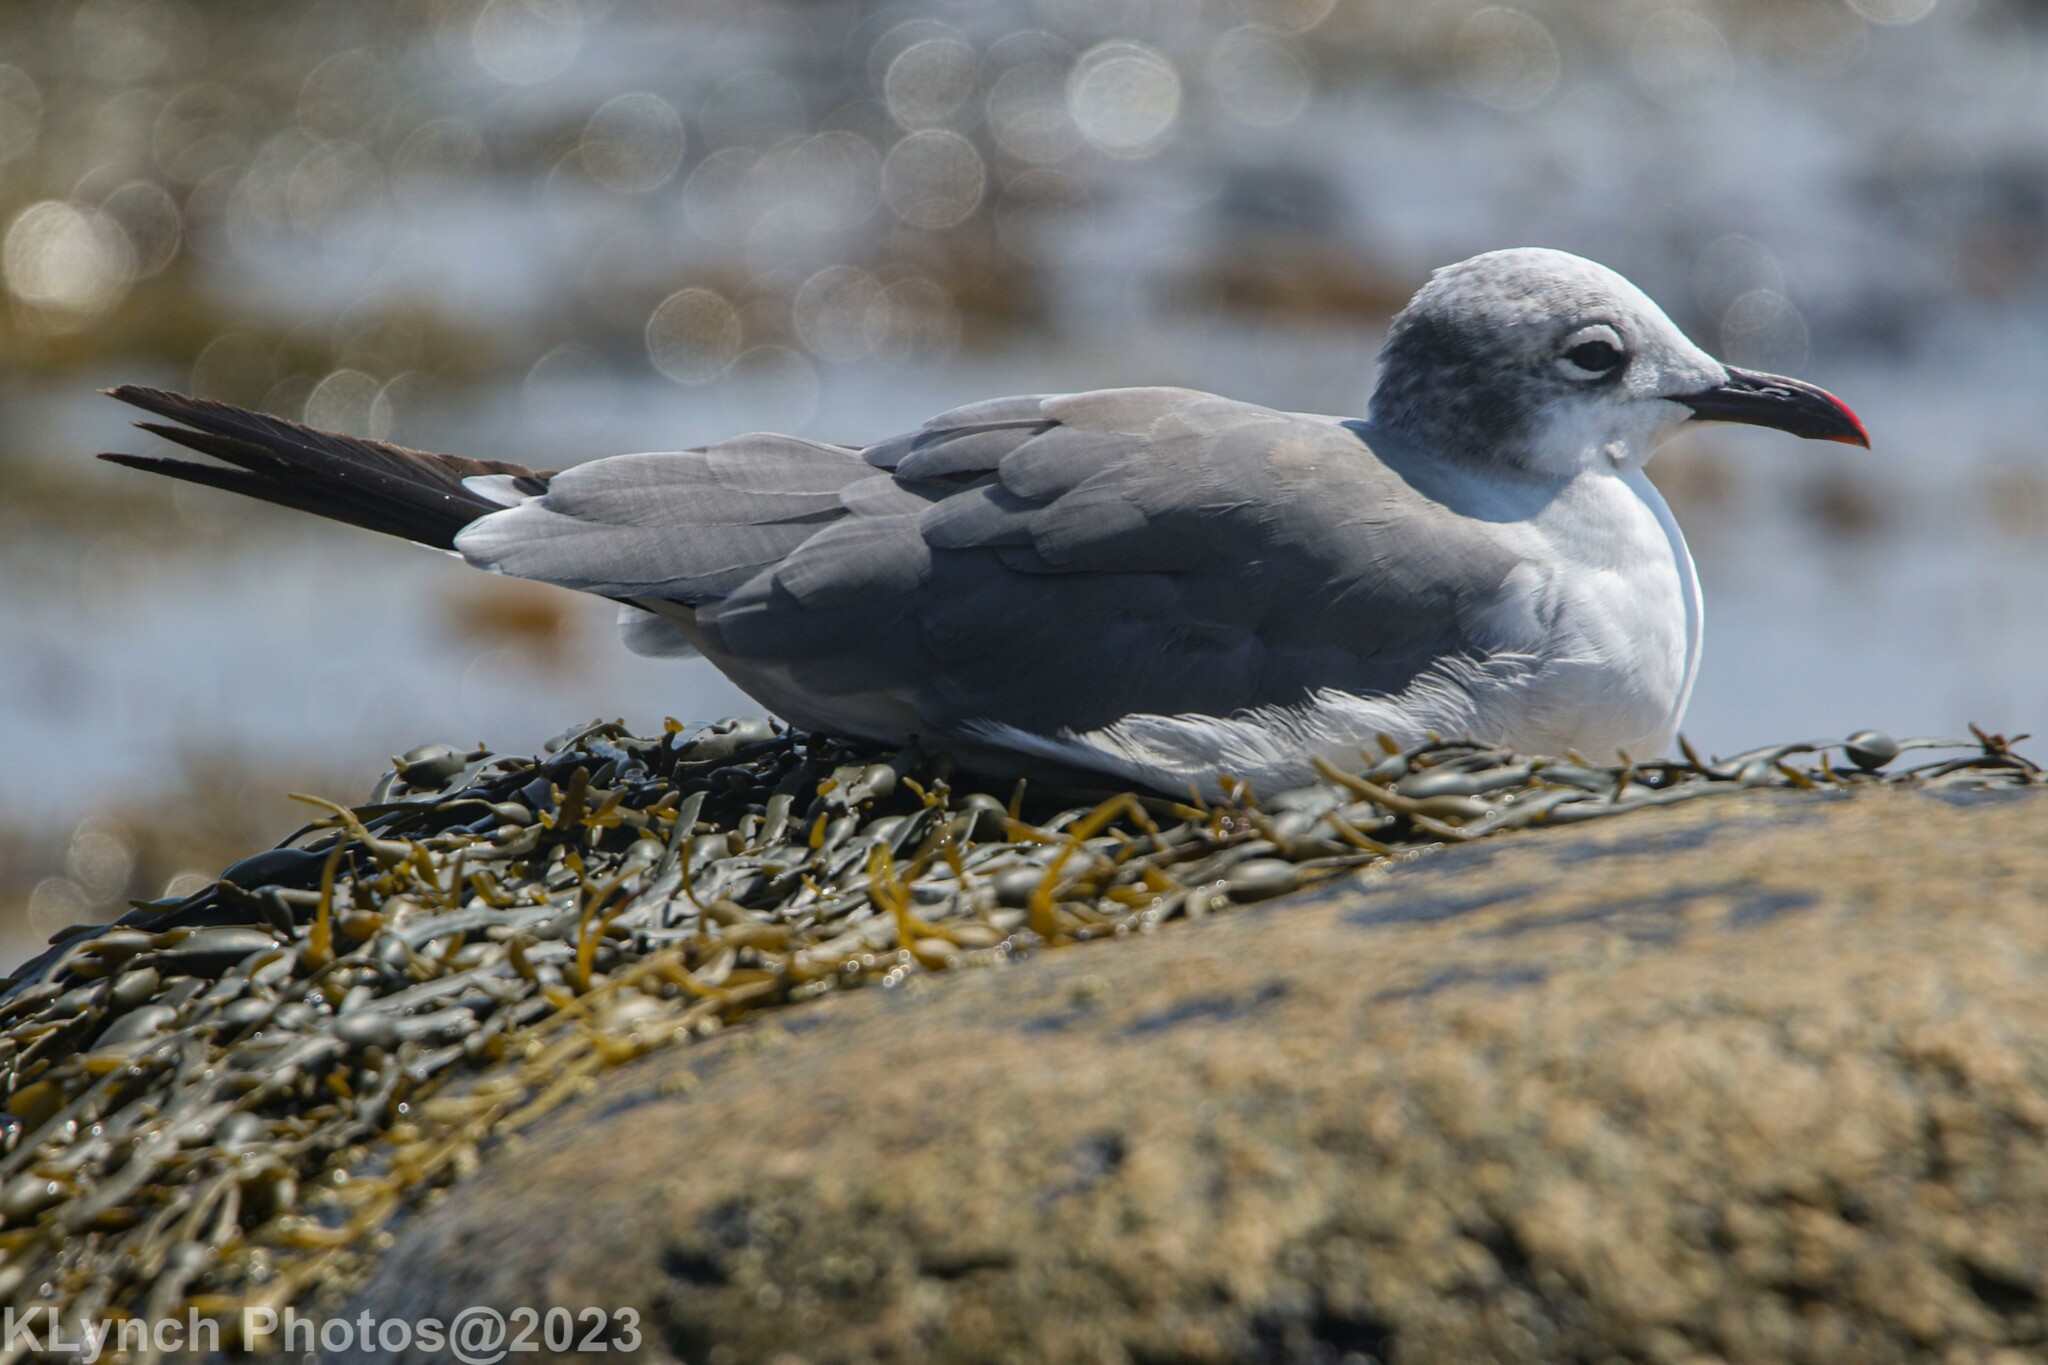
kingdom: Animalia
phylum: Chordata
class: Aves
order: Charadriiformes
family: Laridae
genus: Leucophaeus
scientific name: Leucophaeus atricilla
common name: Laughing gull
